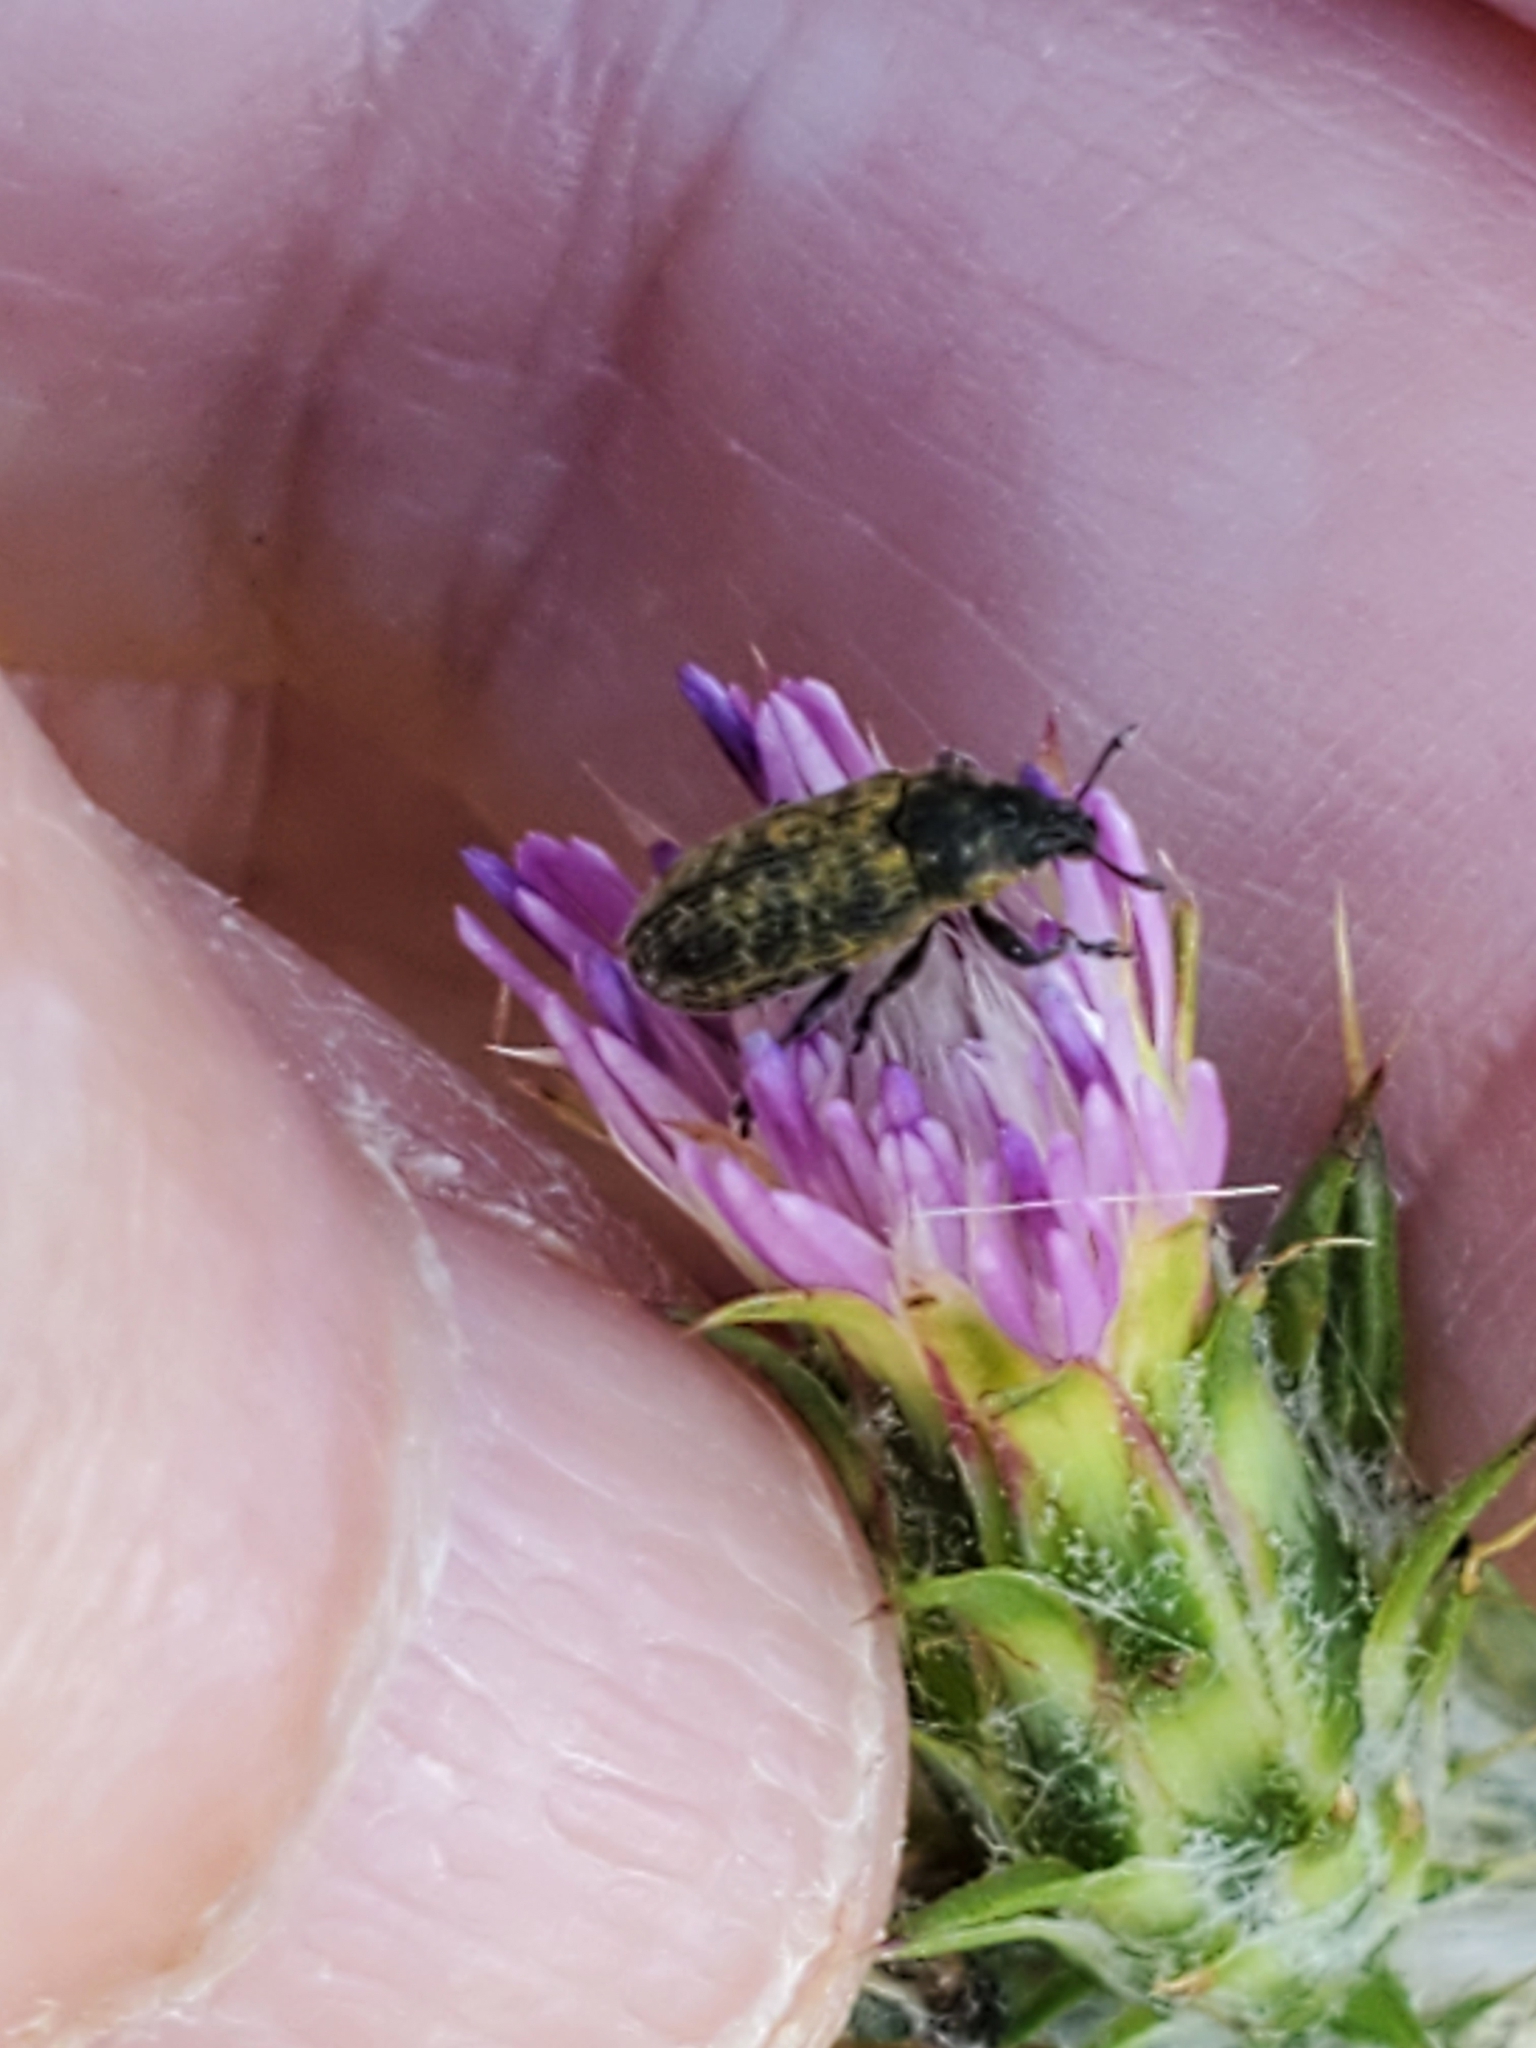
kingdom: Animalia
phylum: Arthropoda
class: Insecta
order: Coleoptera
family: Curculionidae
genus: Rhinocyllus
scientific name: Rhinocyllus conicus
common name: Weevil
